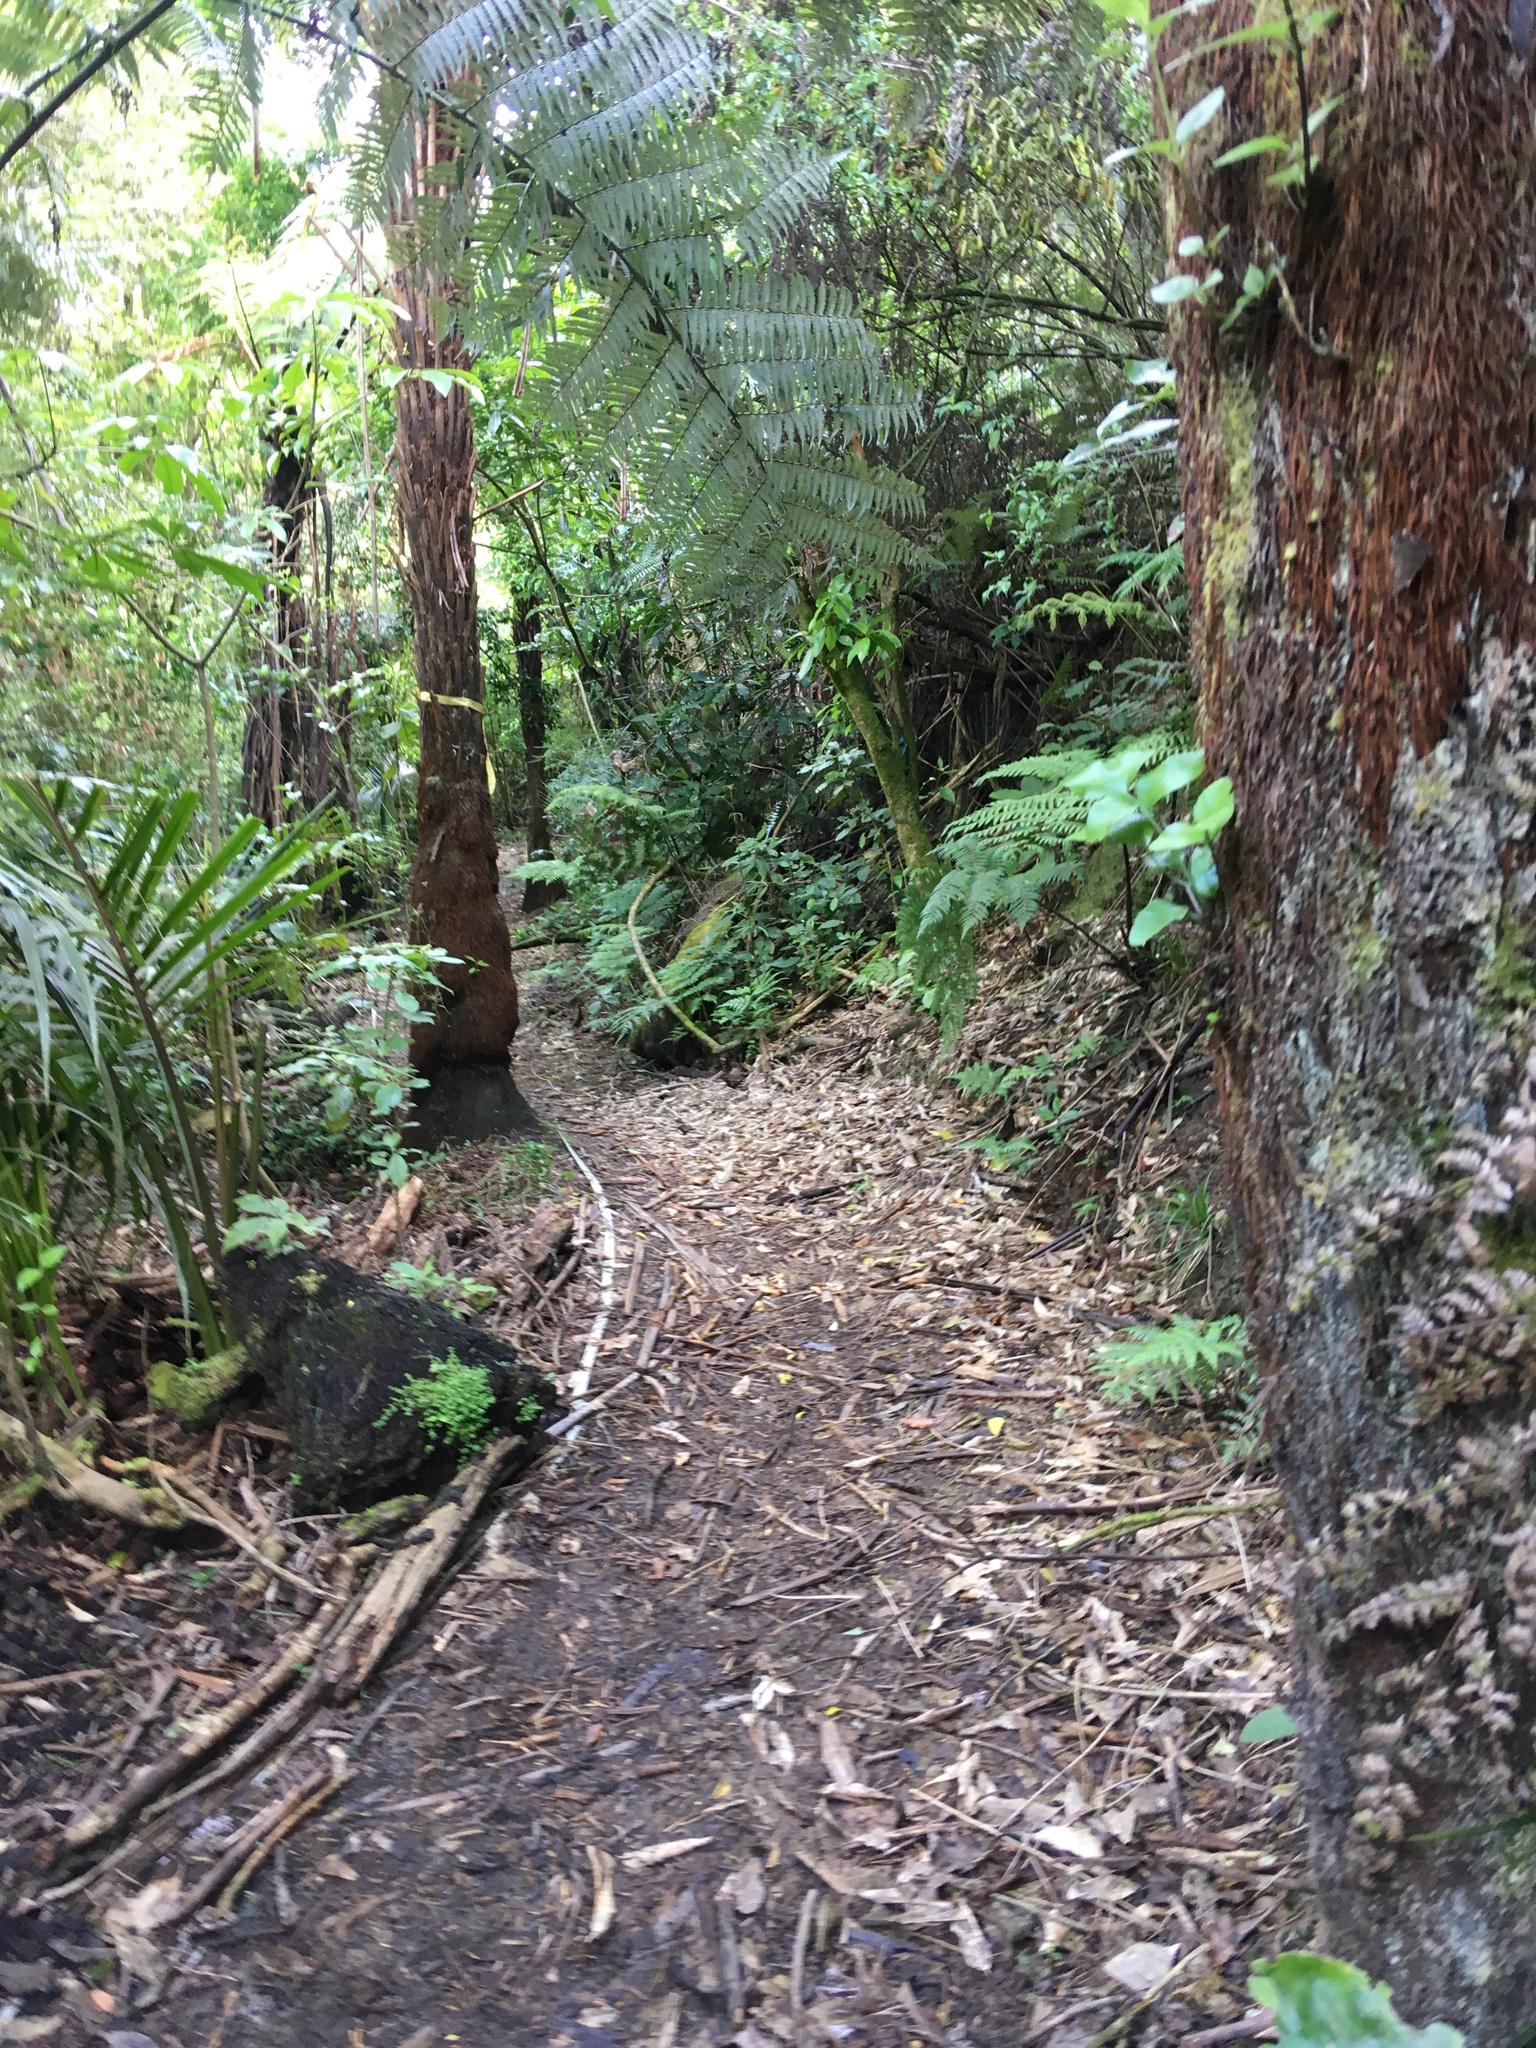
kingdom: Plantae
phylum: Tracheophyta
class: Polypodiopsida
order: Polypodiales
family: Aspleniaceae
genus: Asplenium
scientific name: Asplenium oblongifolium
